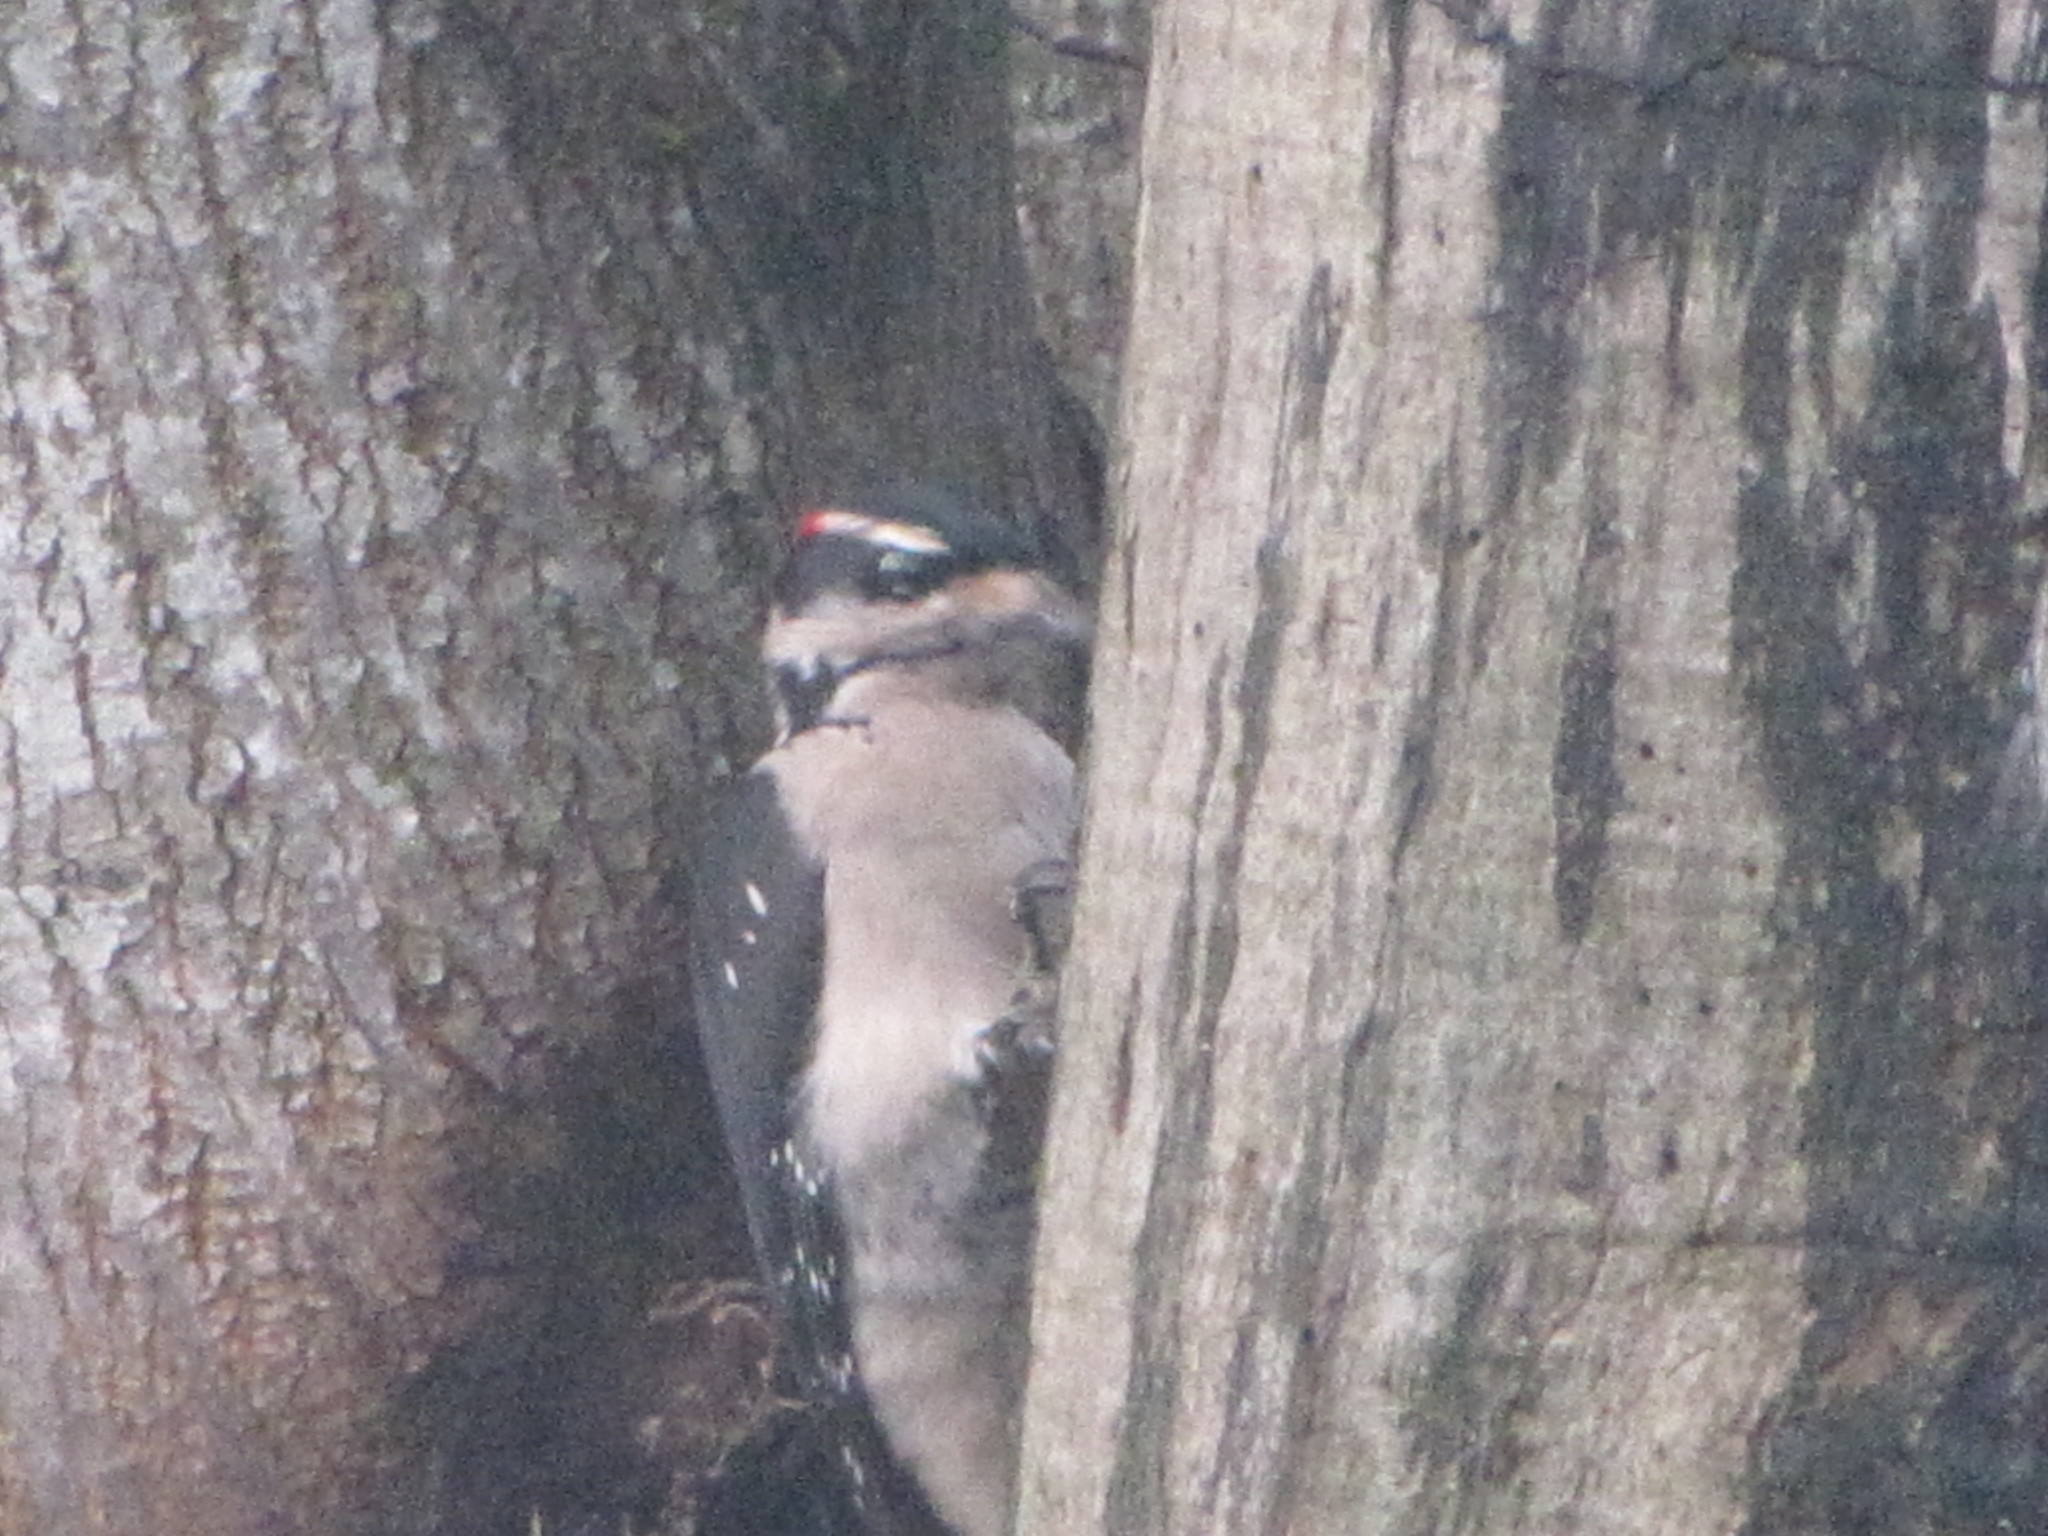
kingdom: Animalia
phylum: Chordata
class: Aves
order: Piciformes
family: Picidae
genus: Dryobates
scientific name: Dryobates pubescens
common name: Downy woodpecker
